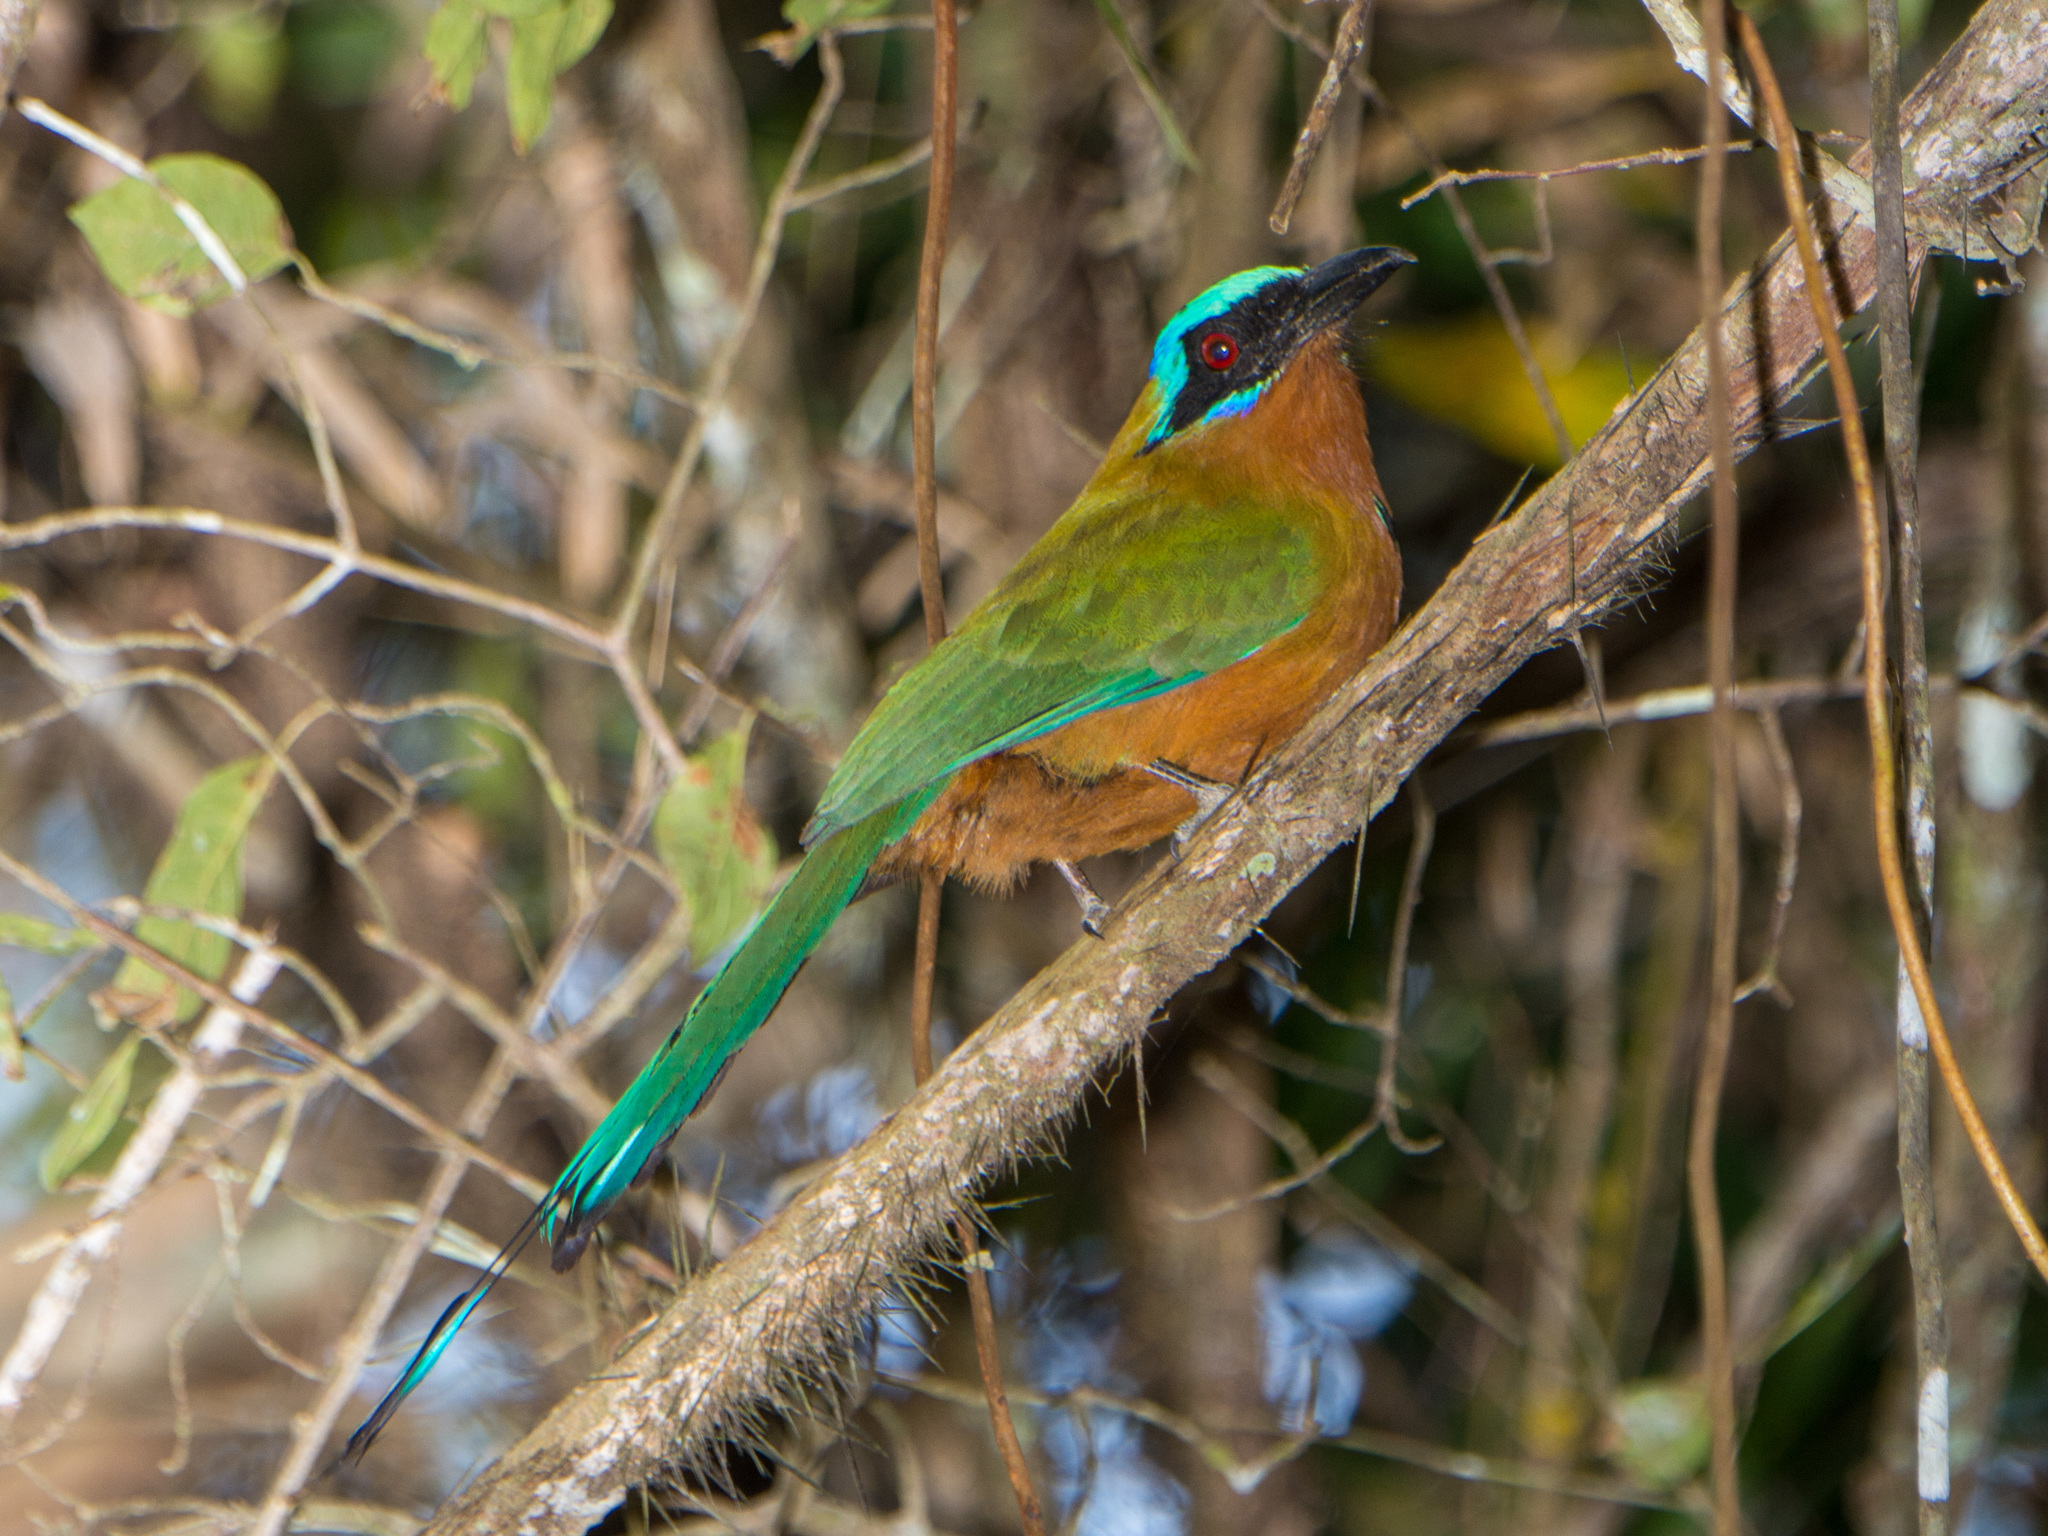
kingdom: Animalia
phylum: Chordata
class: Aves
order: Coraciiformes
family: Momotidae
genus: Momotus
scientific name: Momotus bahamensis
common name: Trinidad motmot
